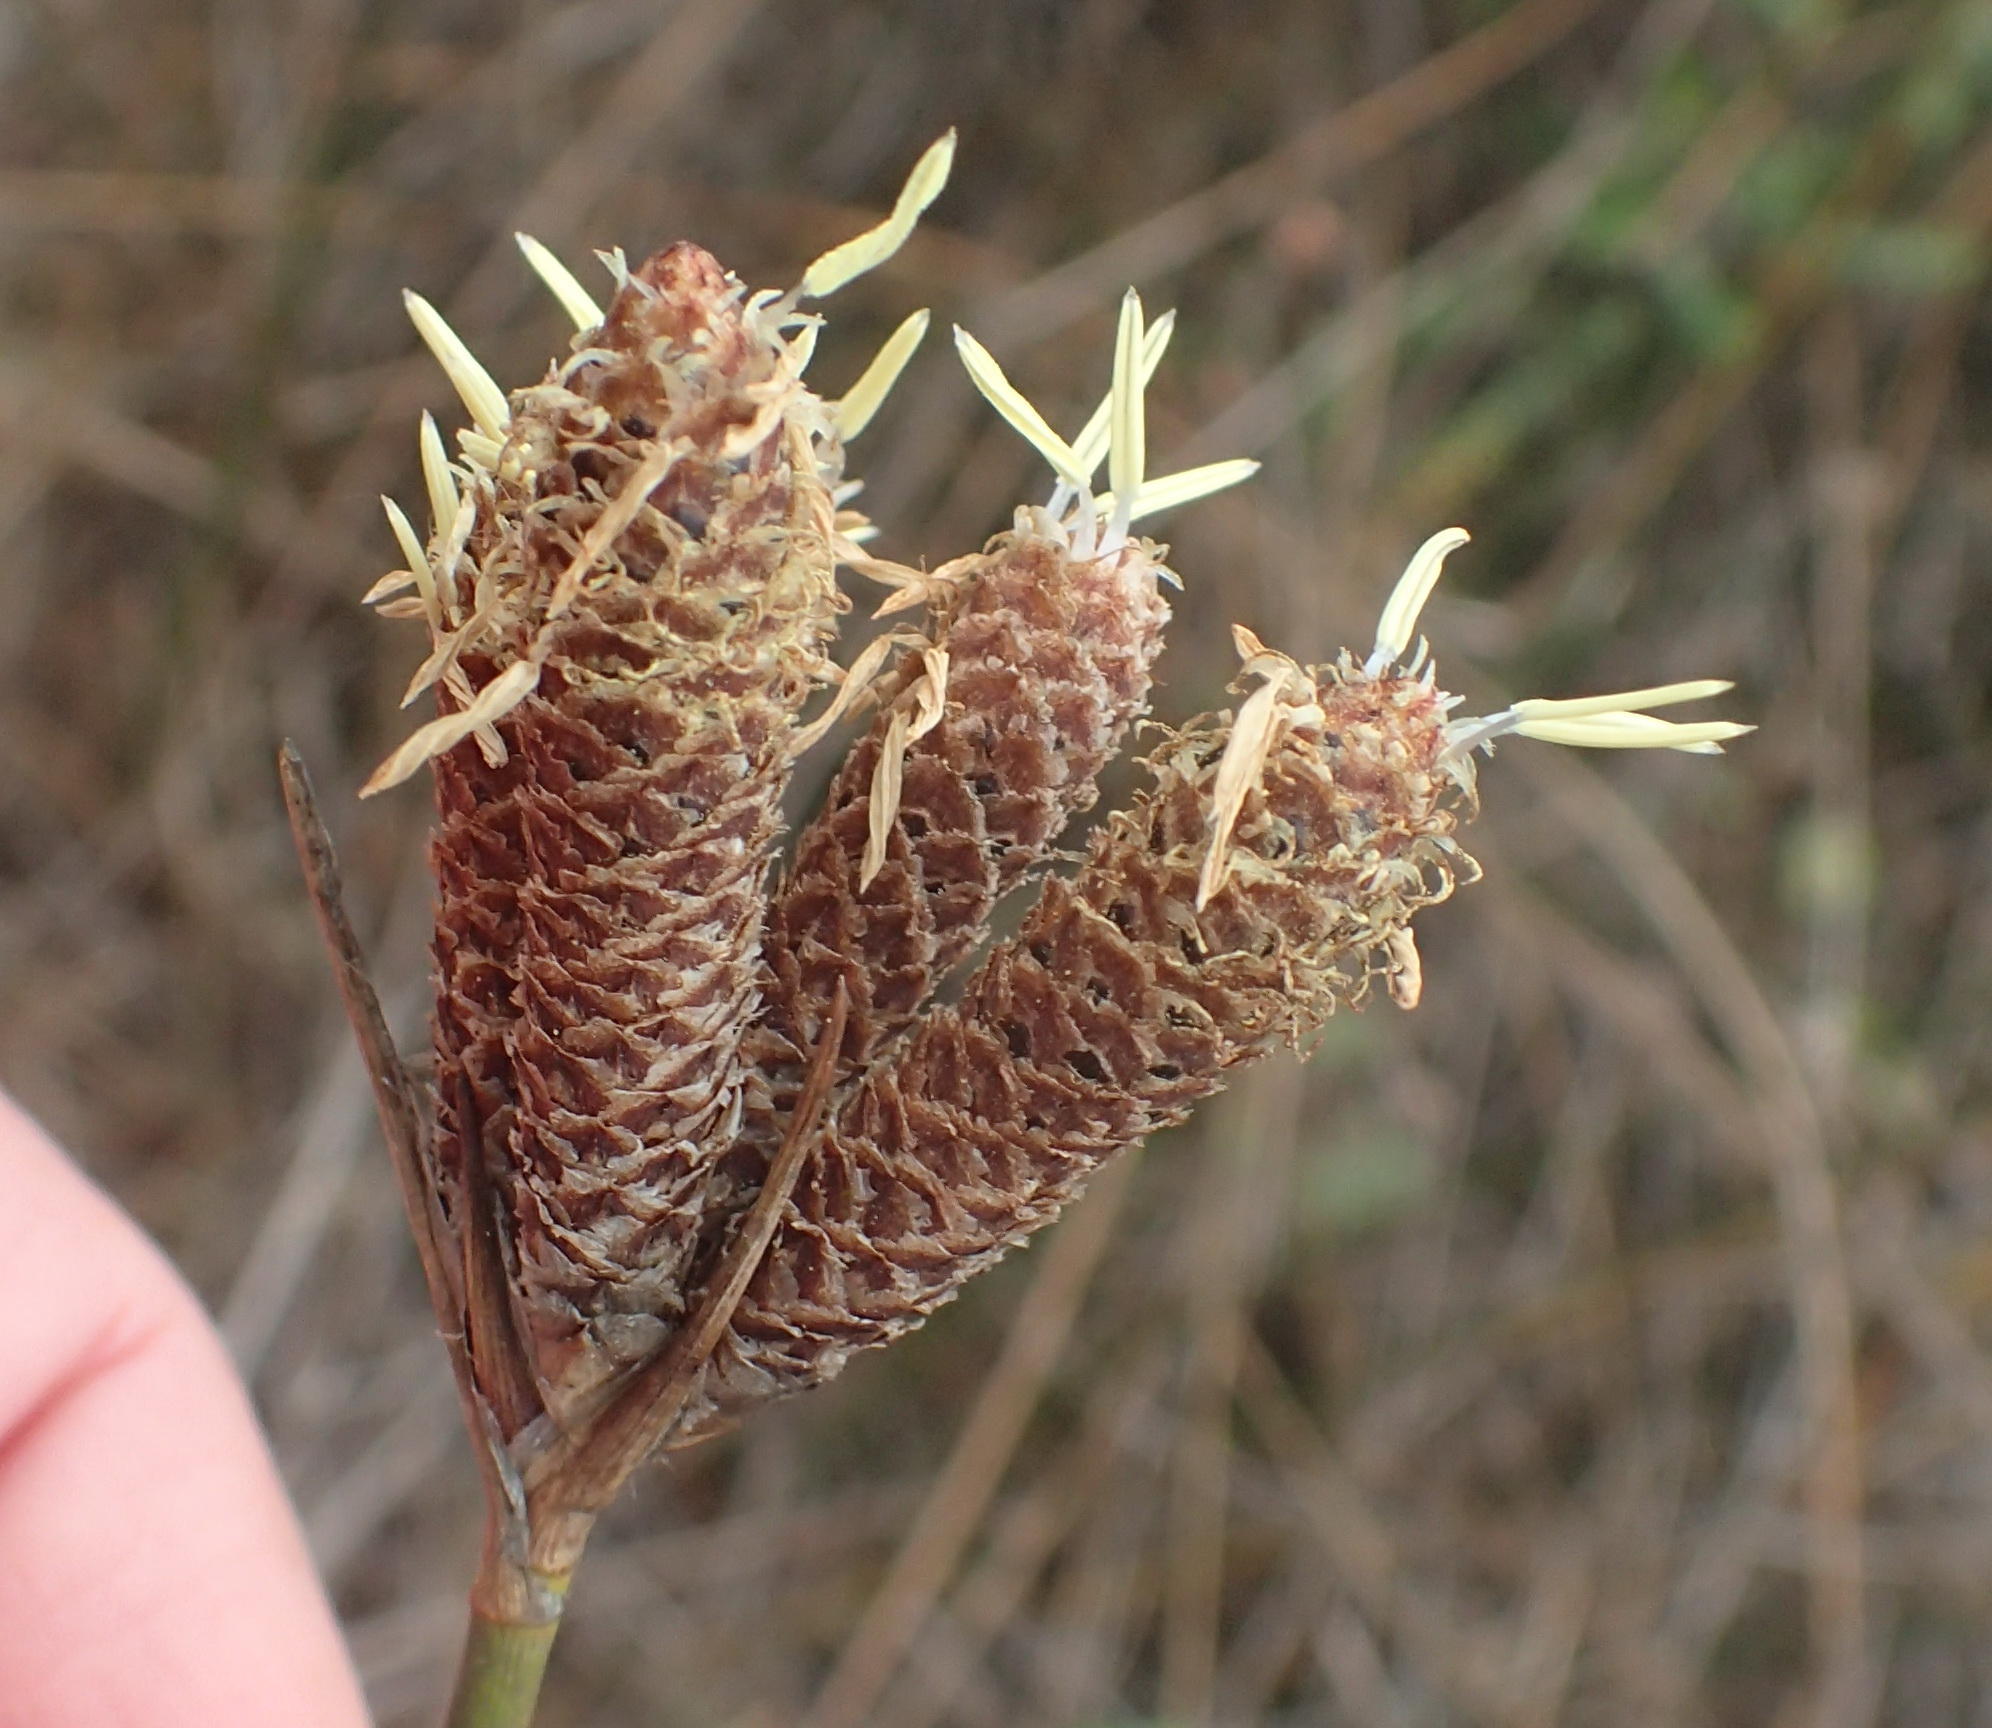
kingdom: Plantae
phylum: Tracheophyta
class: Liliopsida
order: Poales
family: Cyperaceae
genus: Hellmuthia
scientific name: Hellmuthia membranacea
